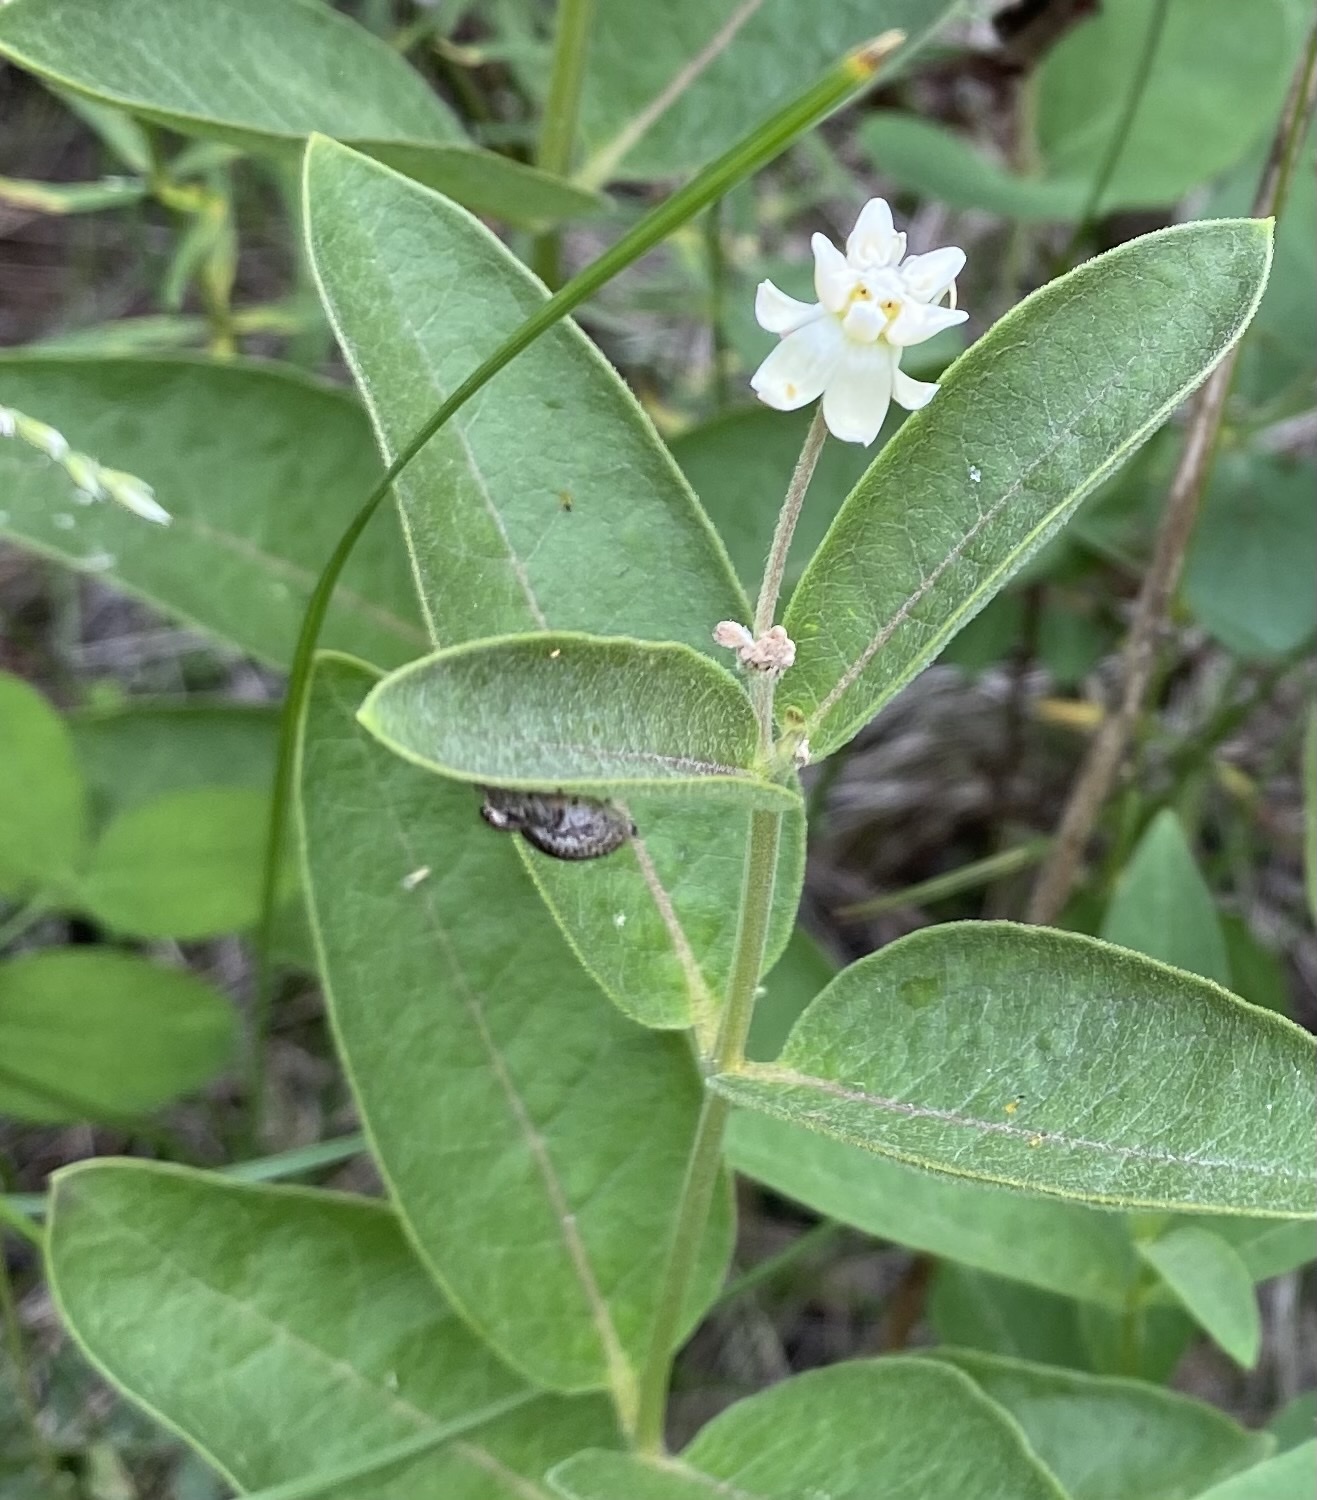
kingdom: Plantae
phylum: Tracheophyta
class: Magnoliopsida
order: Gentianales
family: Apocynaceae
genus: Asclepias
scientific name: Asclepias ovalifolia
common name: Dwarf milkweed
